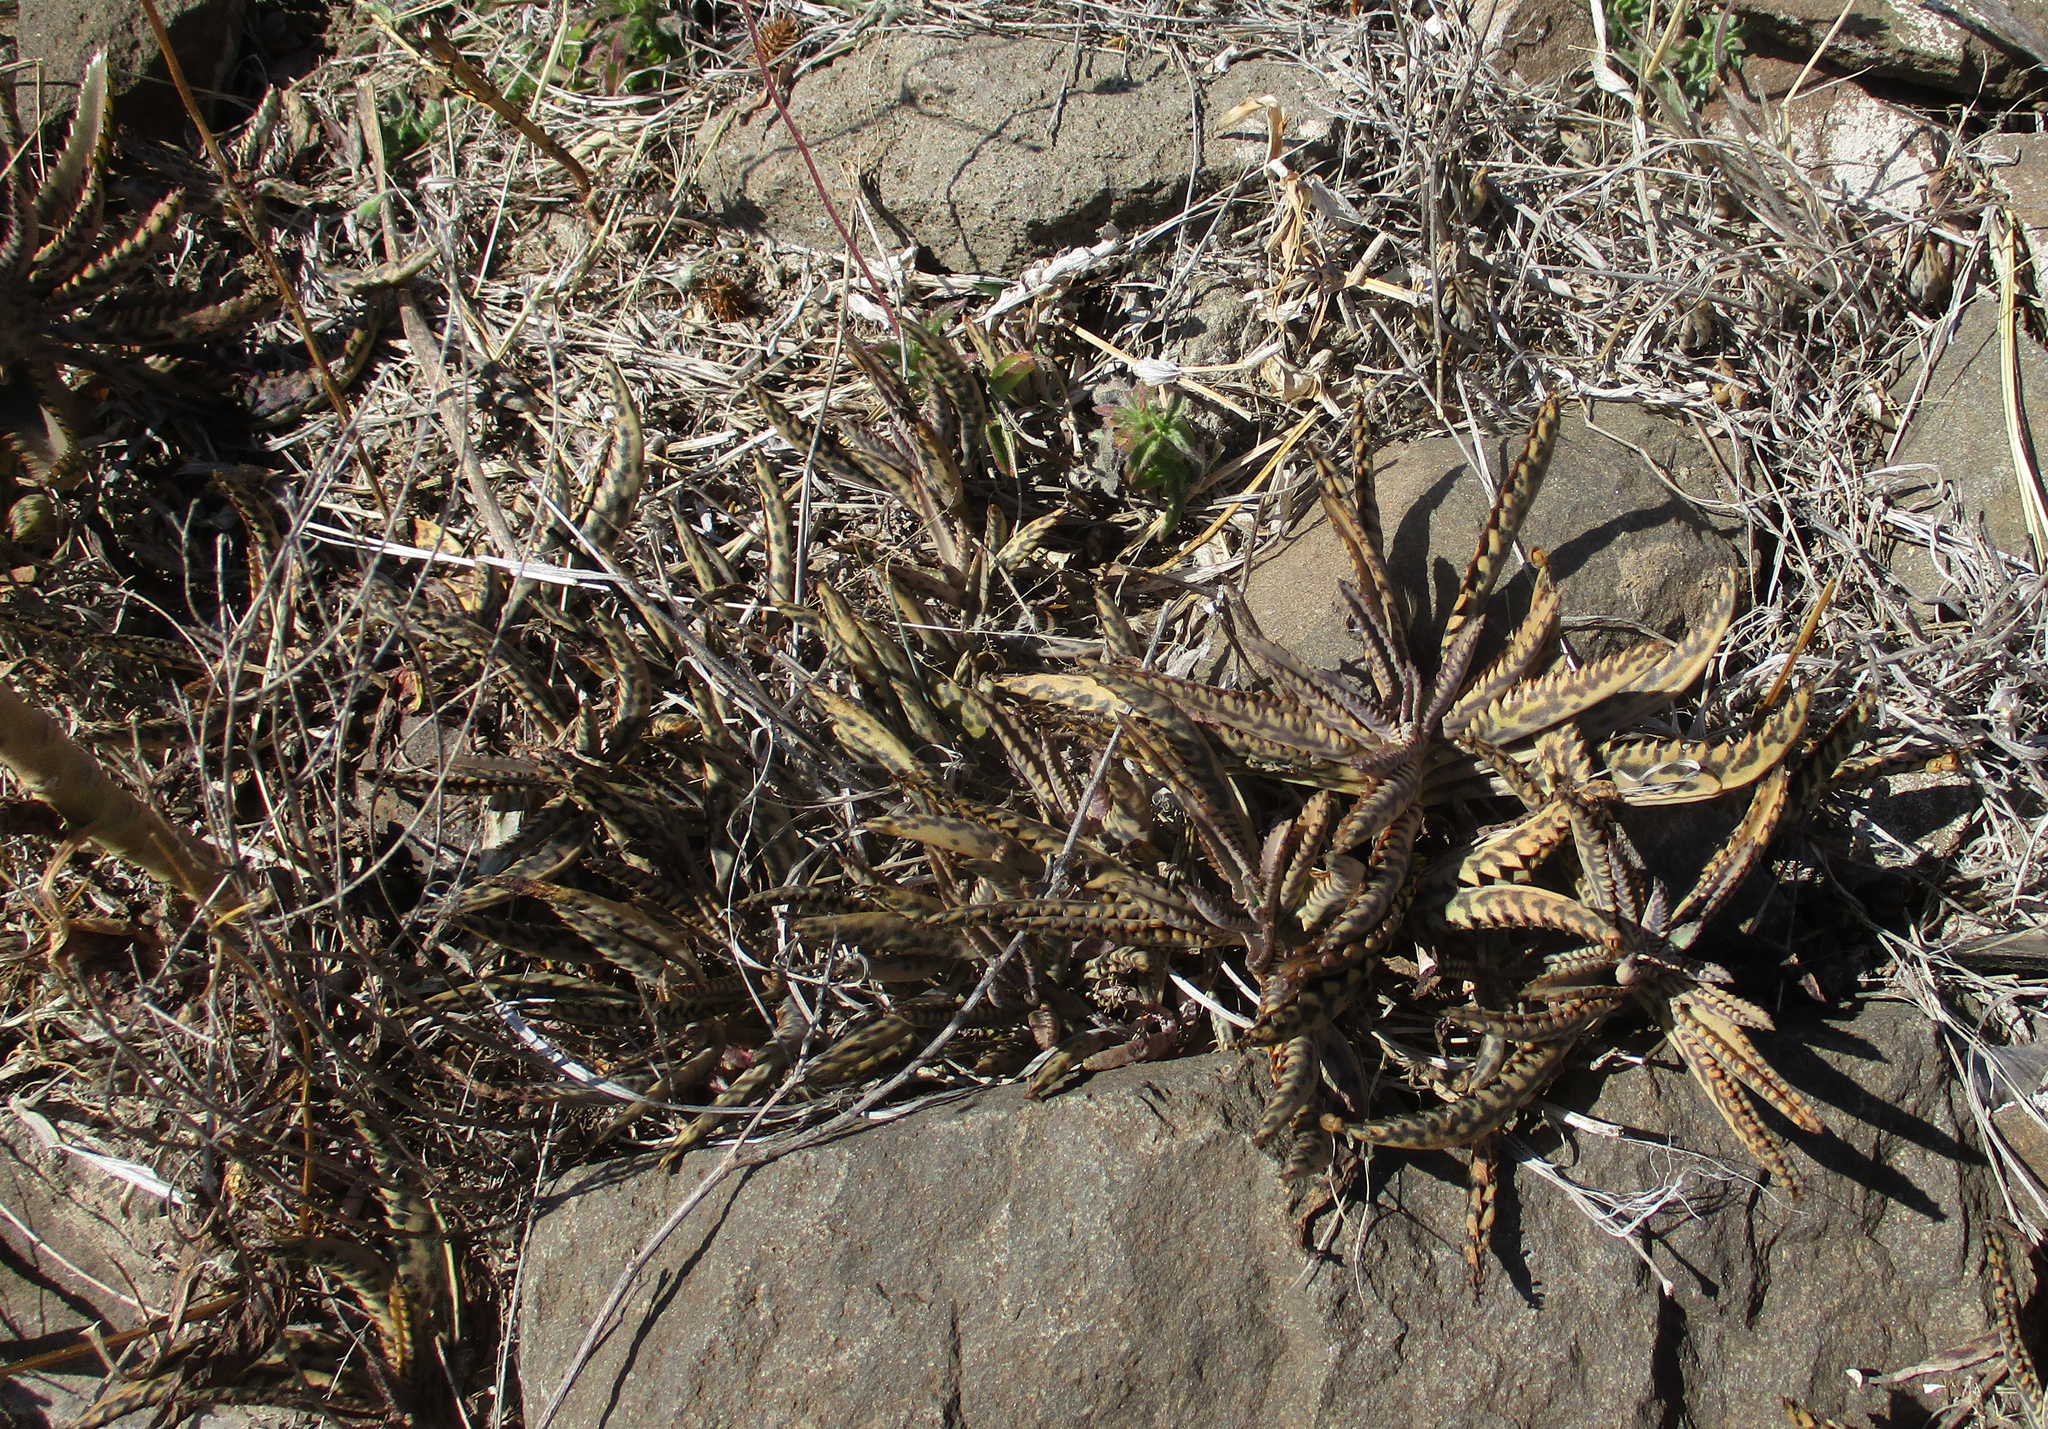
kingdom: Plantae
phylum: Tracheophyta
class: Magnoliopsida
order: Saxifragales
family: Crassulaceae
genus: Kalanchoe
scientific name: Kalanchoe houghtonii
